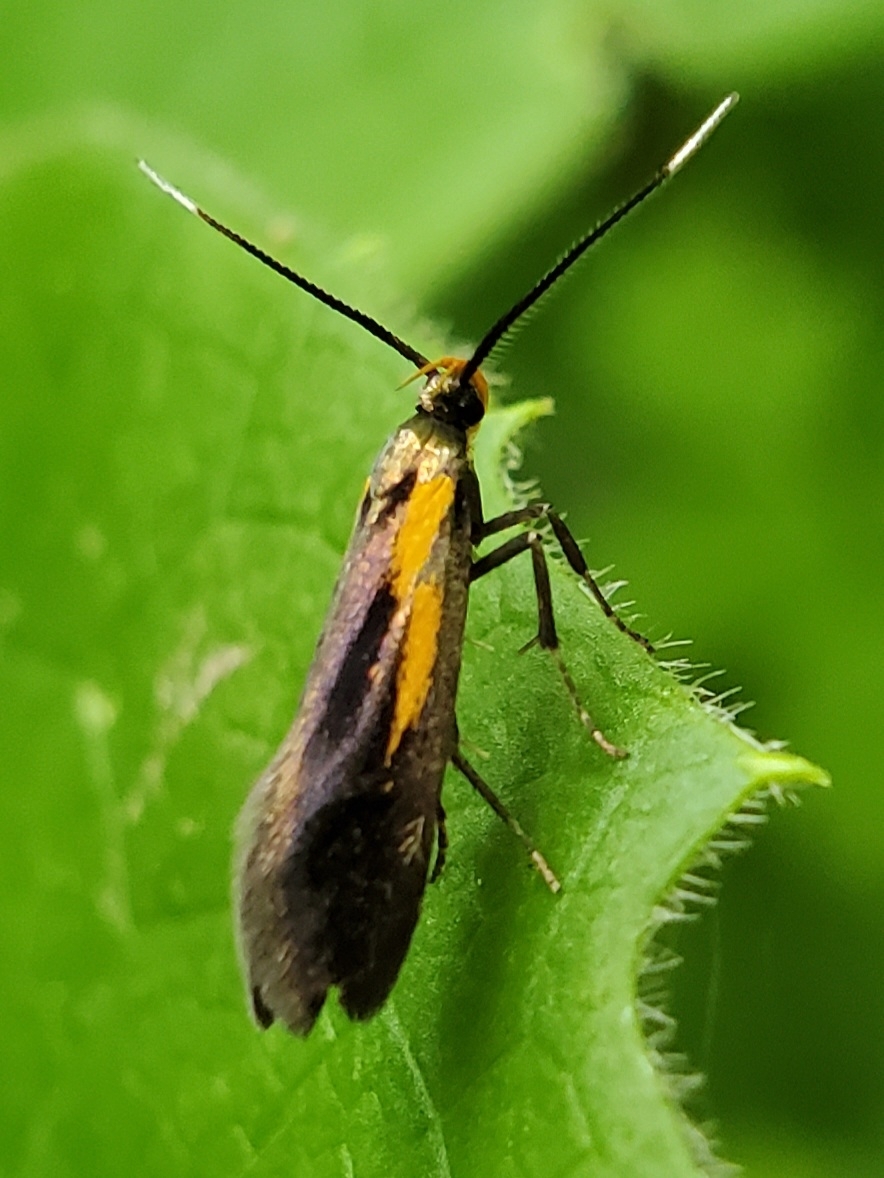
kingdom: Animalia
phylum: Arthropoda
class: Insecta
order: Lepidoptera
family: Oecophoridae
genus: Mathildana
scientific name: Mathildana newmanella
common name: Newman's mathildana moth
